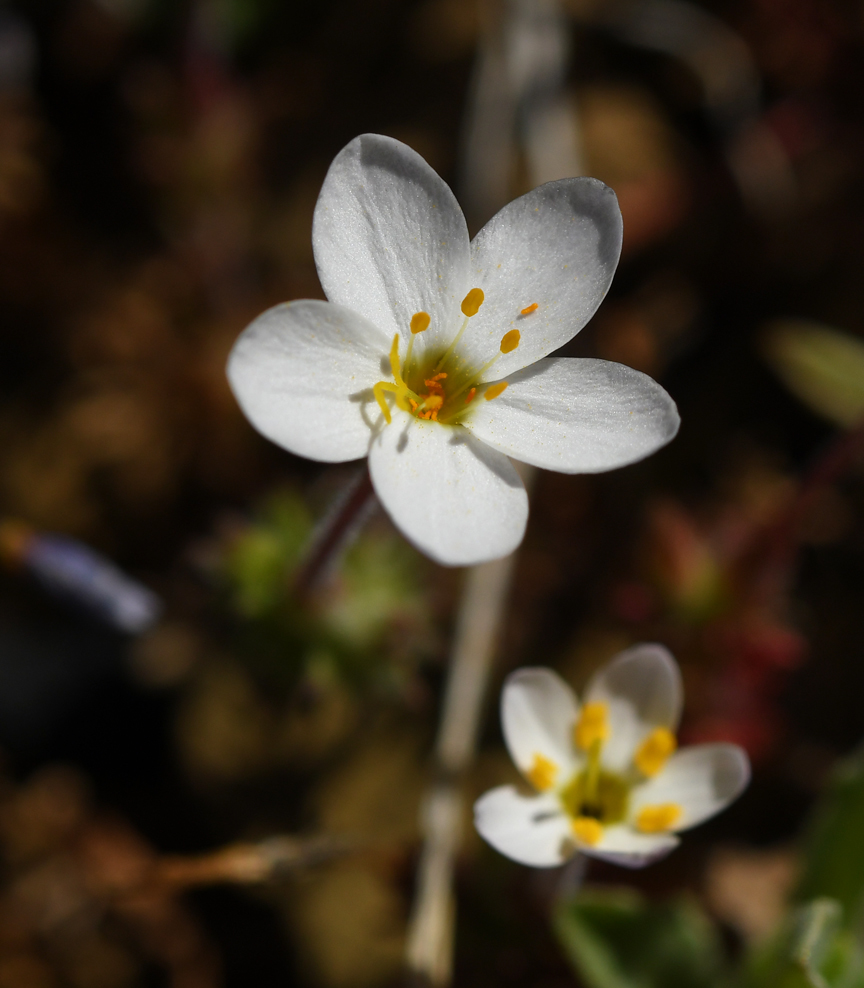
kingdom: Plantae
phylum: Tracheophyta
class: Magnoliopsida
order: Ericales
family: Polemoniaceae
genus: Leptosiphon
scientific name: Leptosiphon parviflorus
